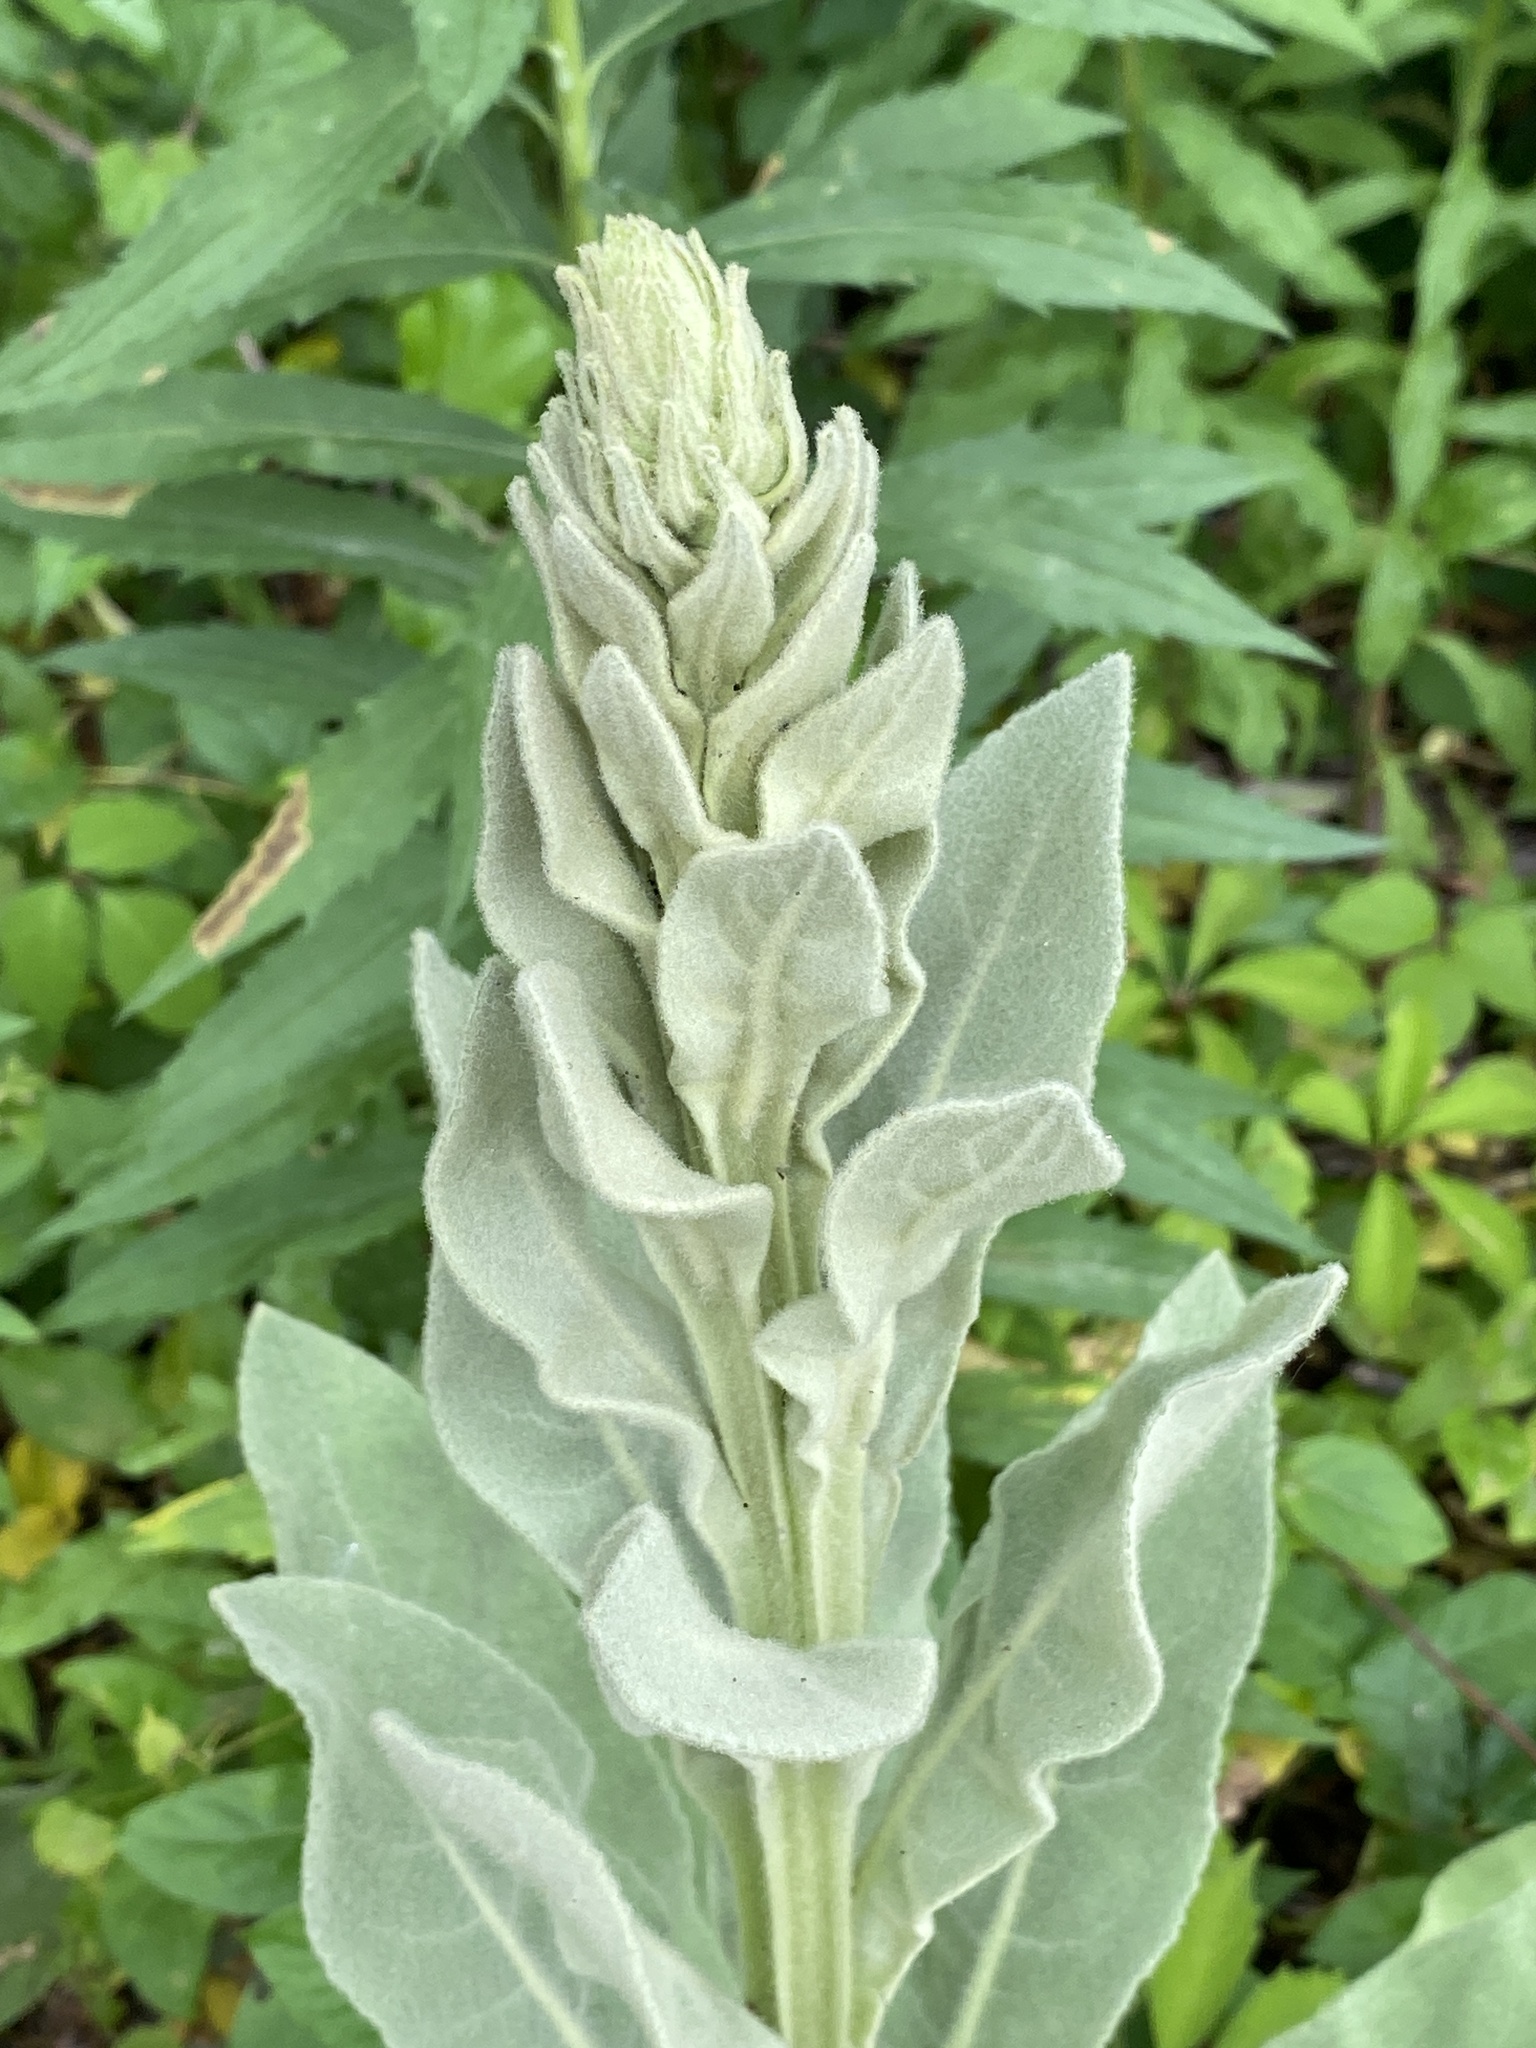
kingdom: Plantae
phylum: Tracheophyta
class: Magnoliopsida
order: Lamiales
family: Scrophulariaceae
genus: Verbascum
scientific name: Verbascum thapsus
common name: Common mullein
